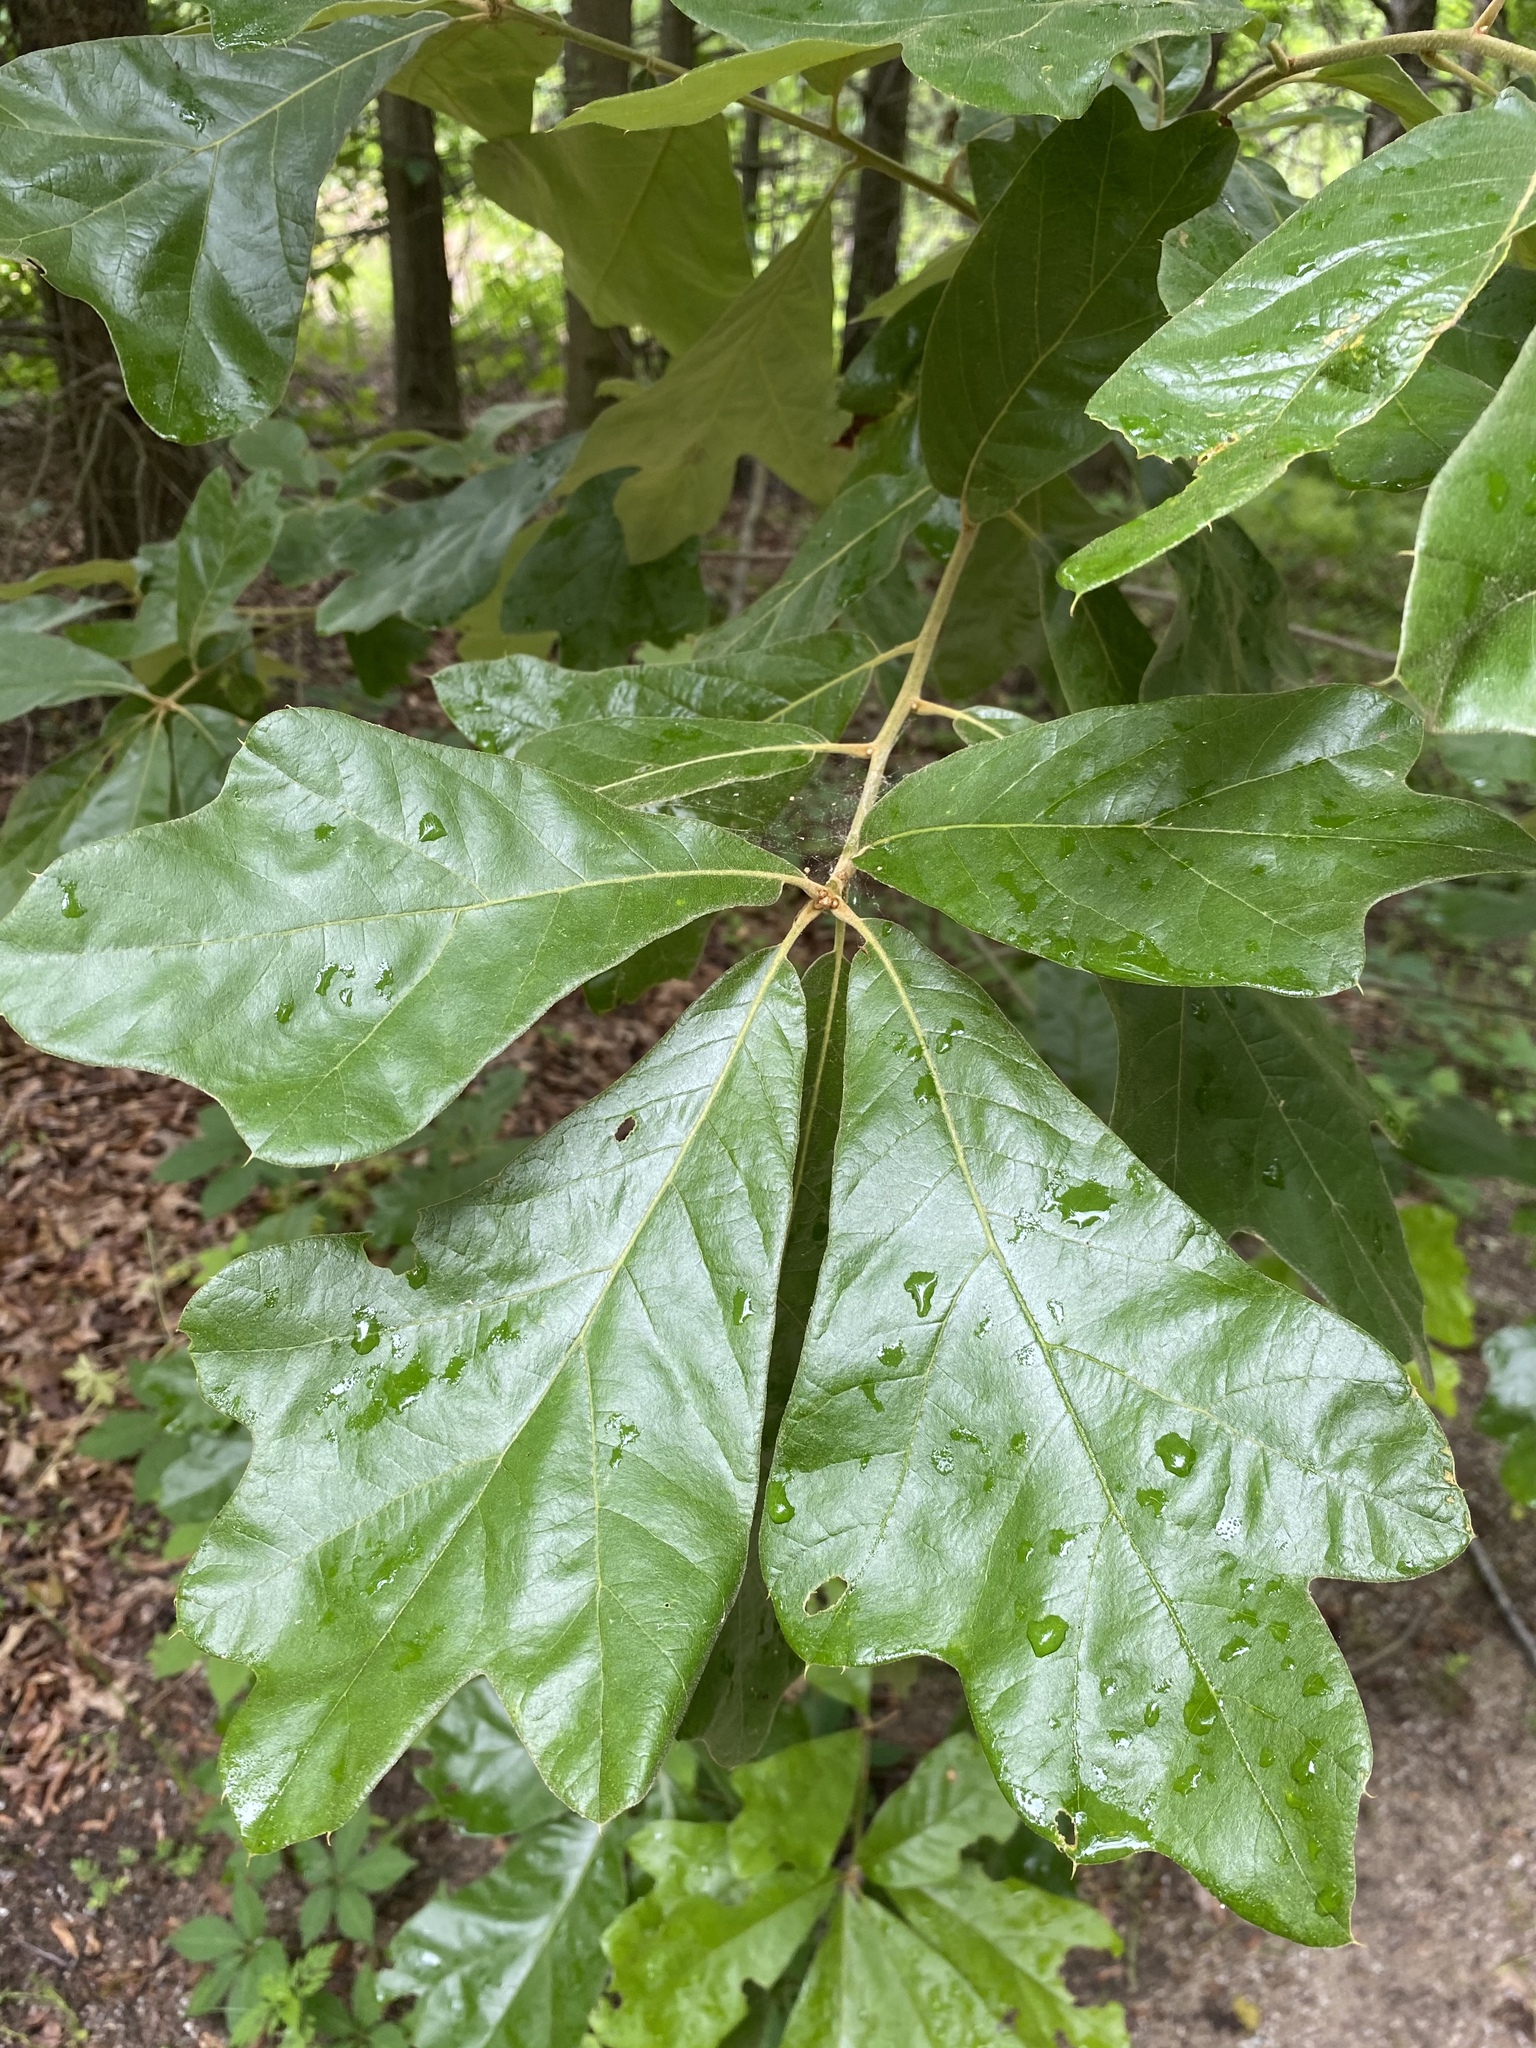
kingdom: Plantae
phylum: Tracheophyta
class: Magnoliopsida
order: Fagales
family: Fagaceae
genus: Quercus
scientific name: Quercus falcata
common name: Southern red oak
